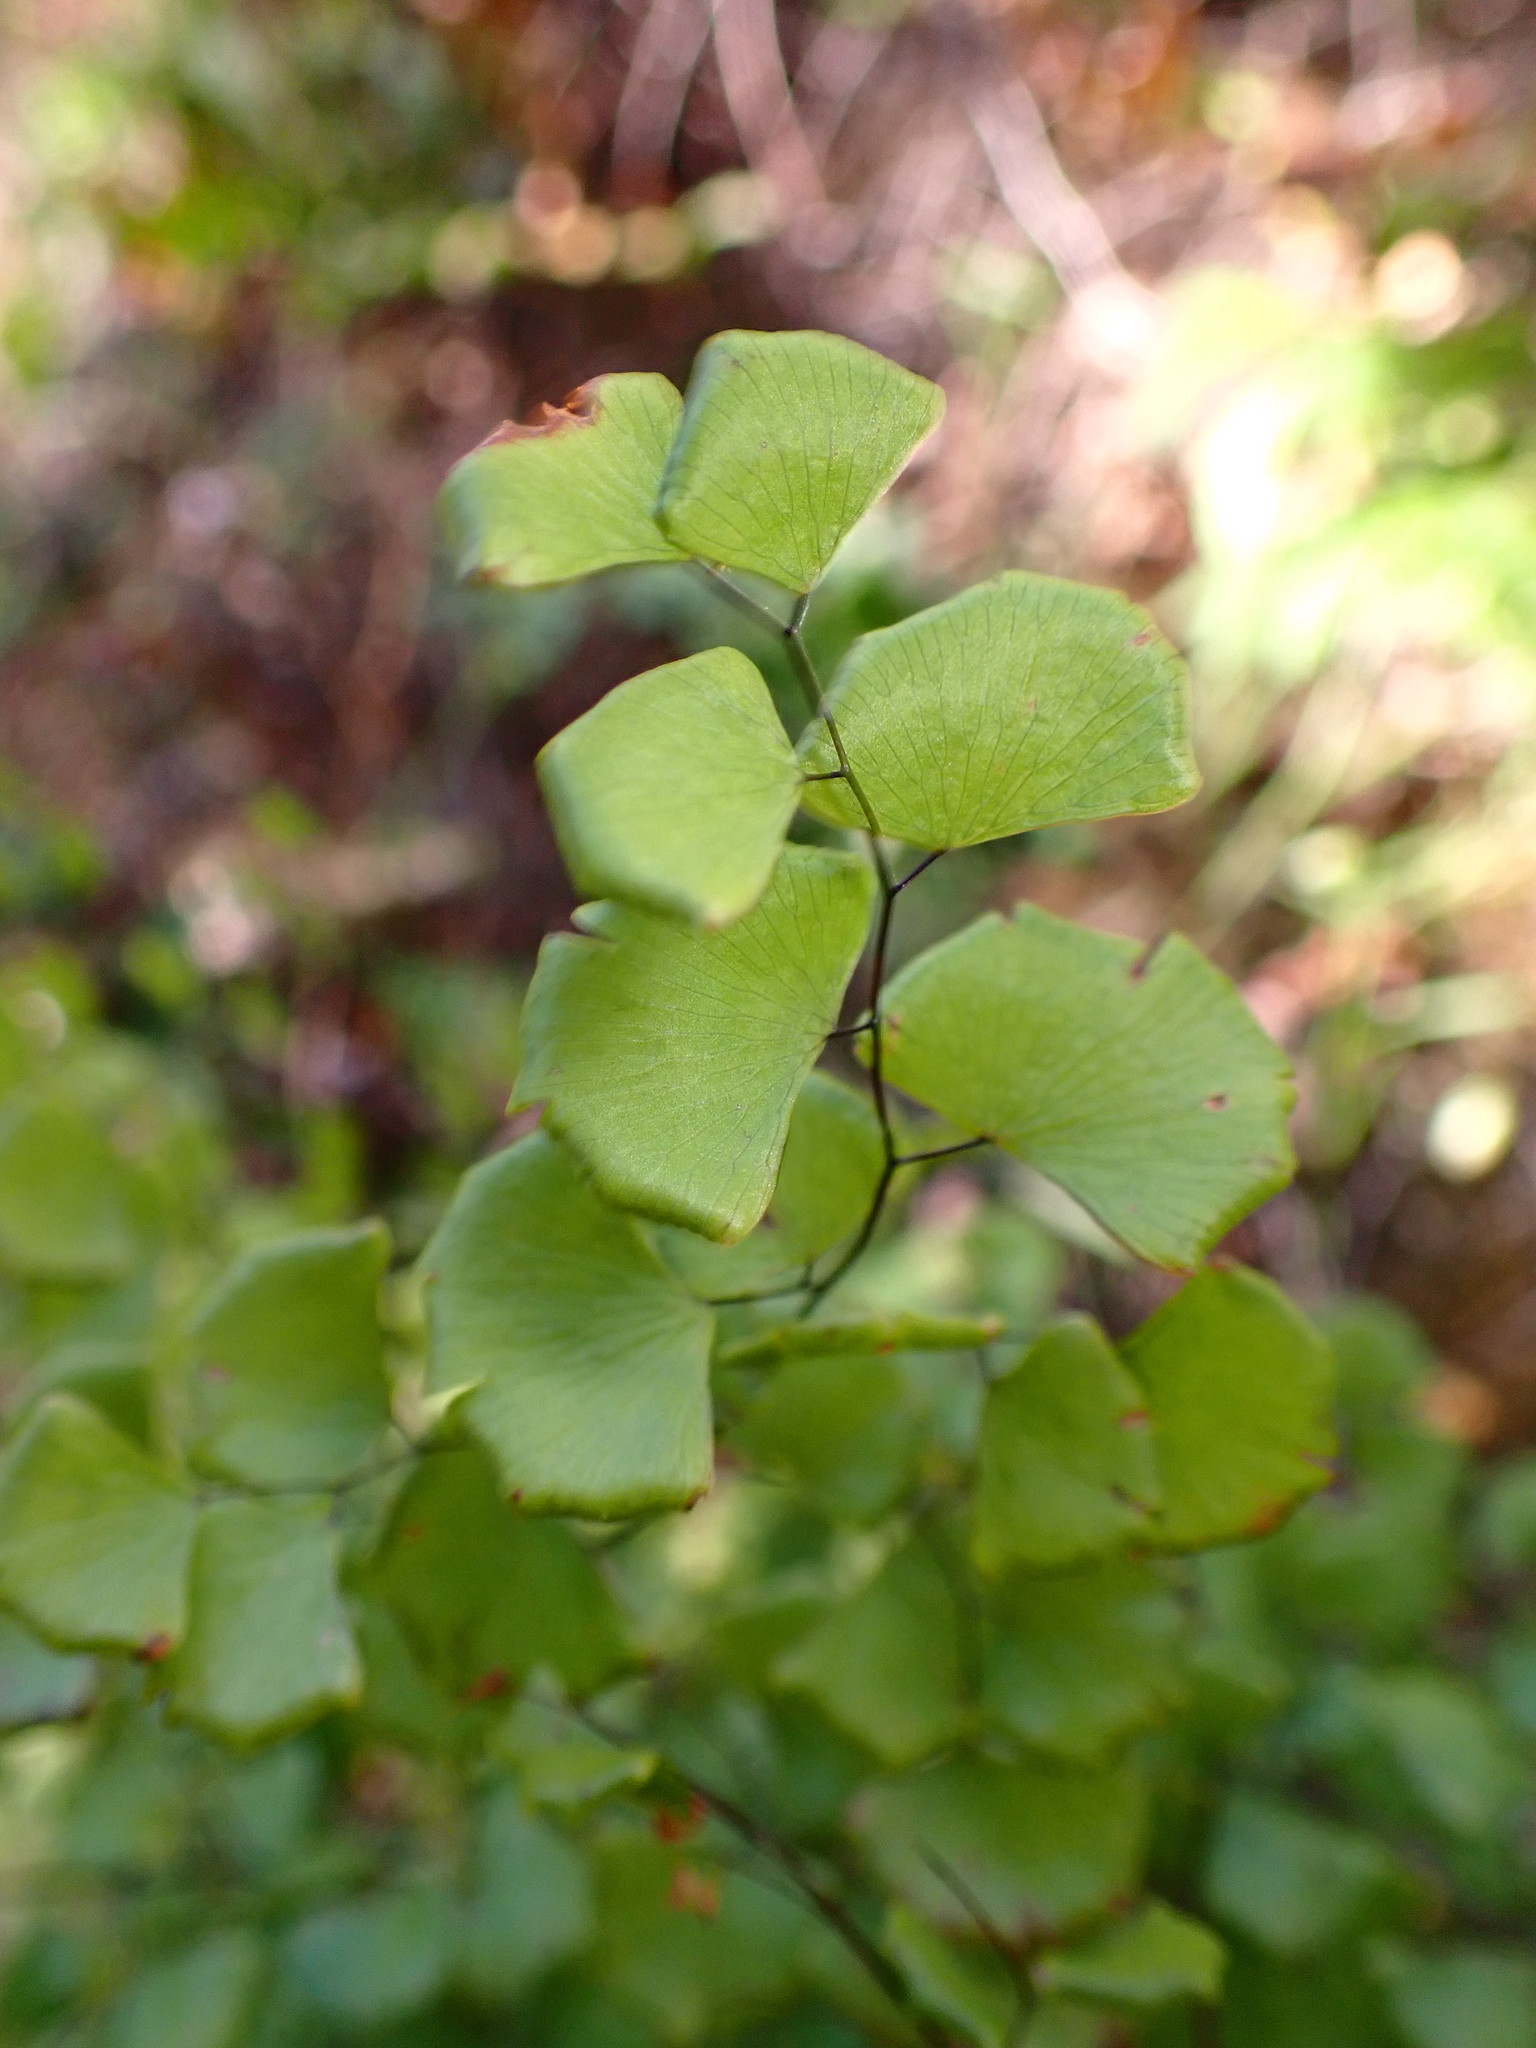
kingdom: Plantae
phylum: Tracheophyta
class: Polypodiopsida
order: Polypodiales
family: Pteridaceae
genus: Adiantum
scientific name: Adiantum jordanii
